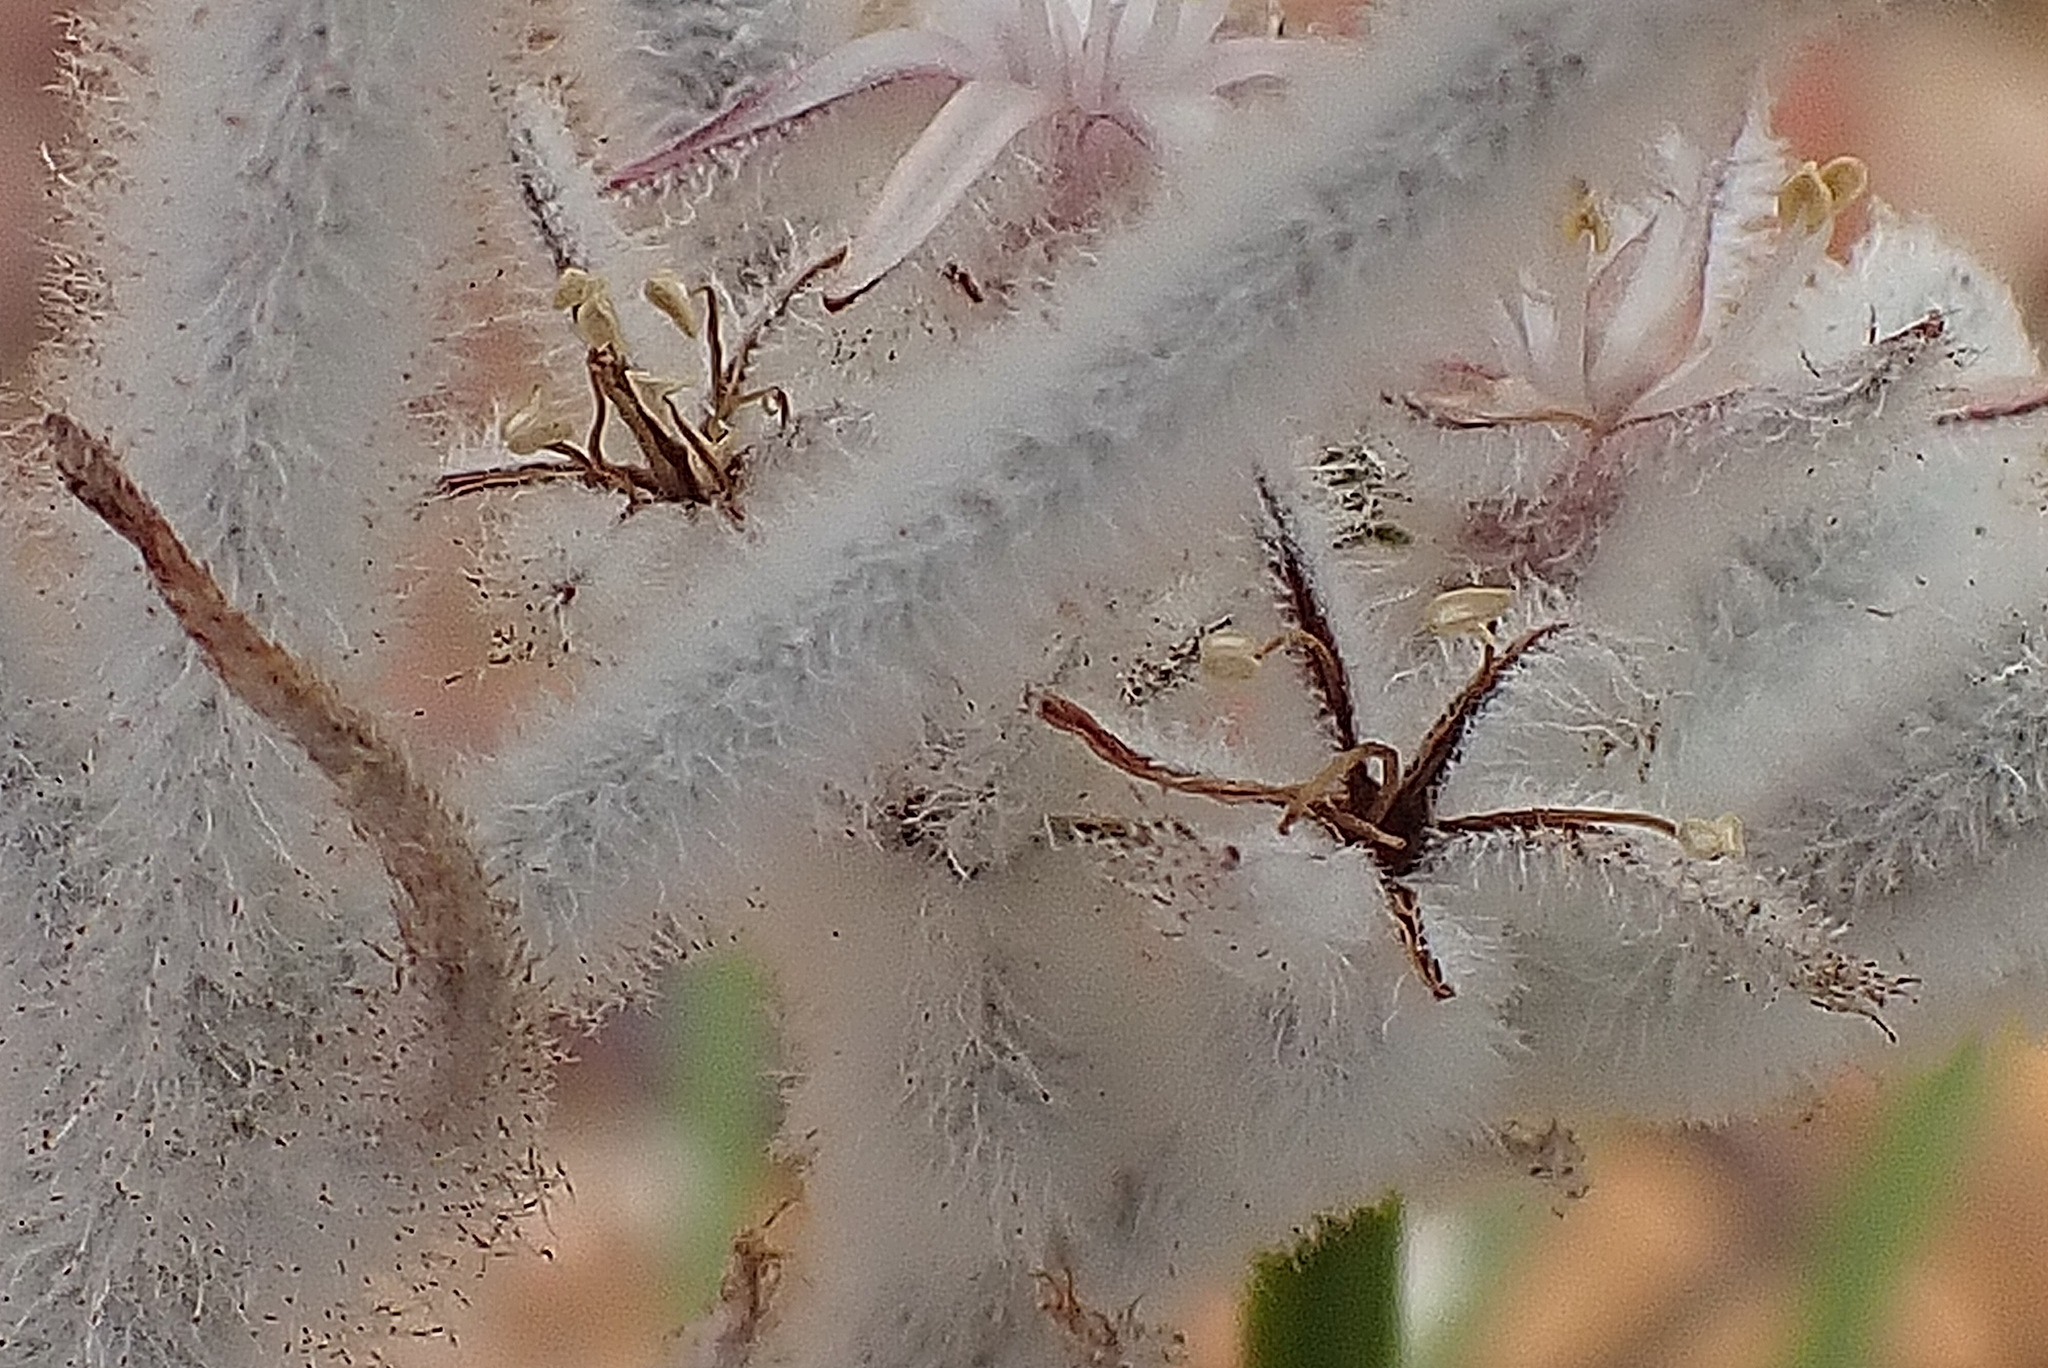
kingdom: Plantae
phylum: Tracheophyta
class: Liliopsida
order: Asparagales
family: Lanariaceae
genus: Lanaria
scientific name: Lanaria lanata
